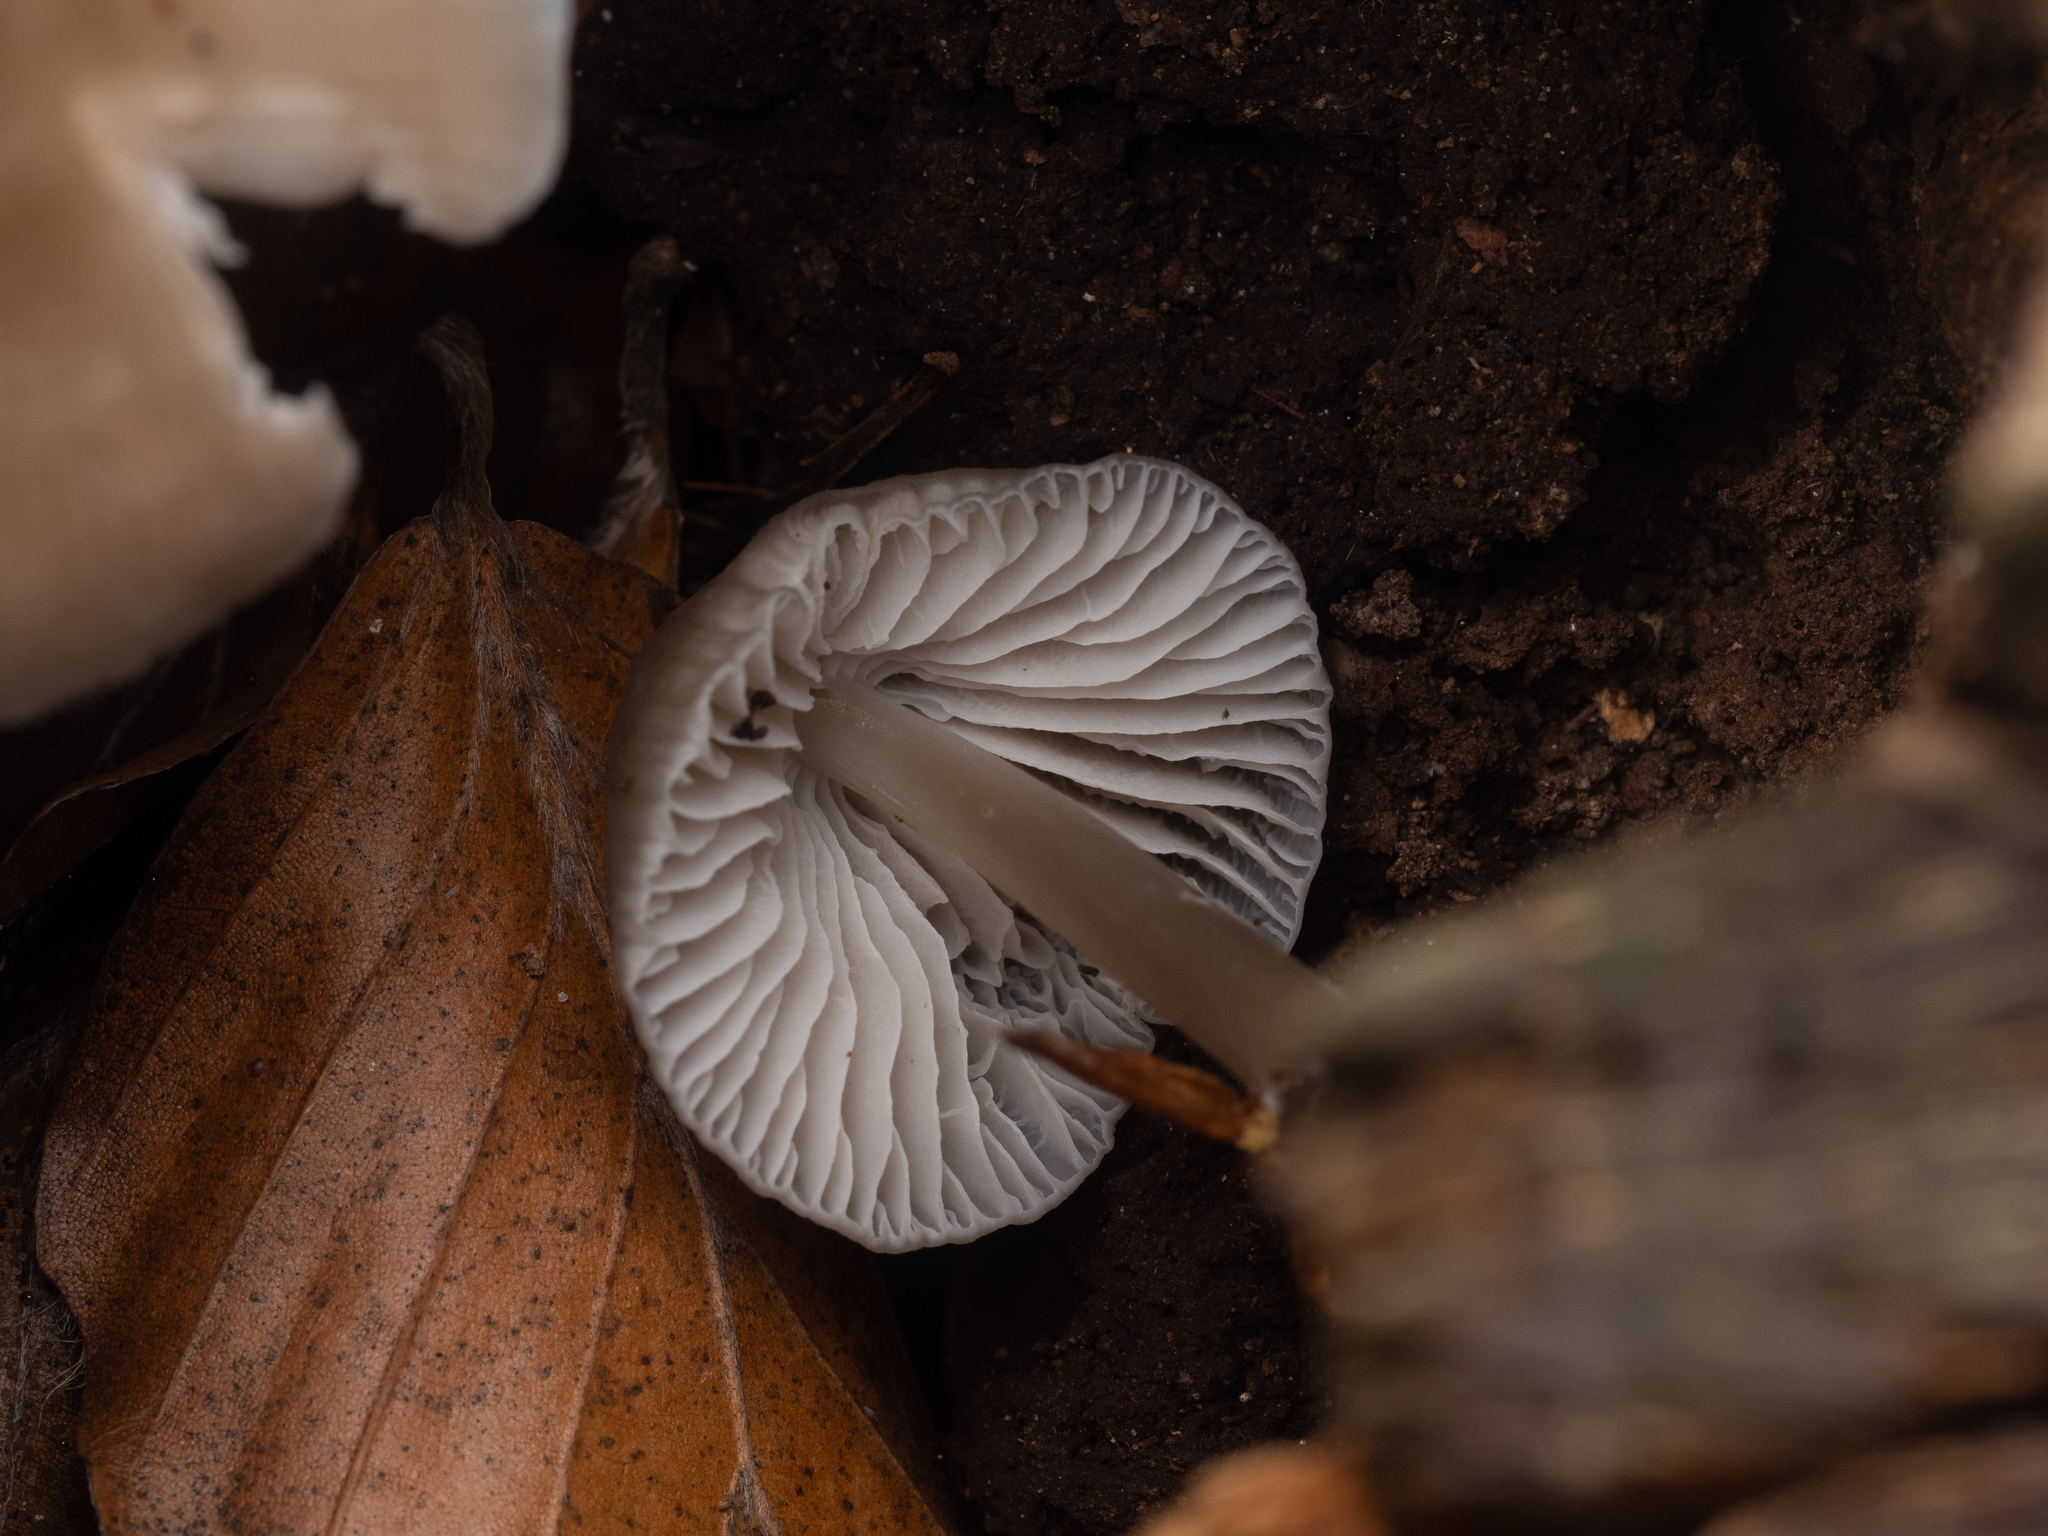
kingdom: Fungi
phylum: Basidiomycota
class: Agaricomycetes
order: Agaricales
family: Mycenaceae
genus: Mycena
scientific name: Mycena galericulata
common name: Bonnet mycena
